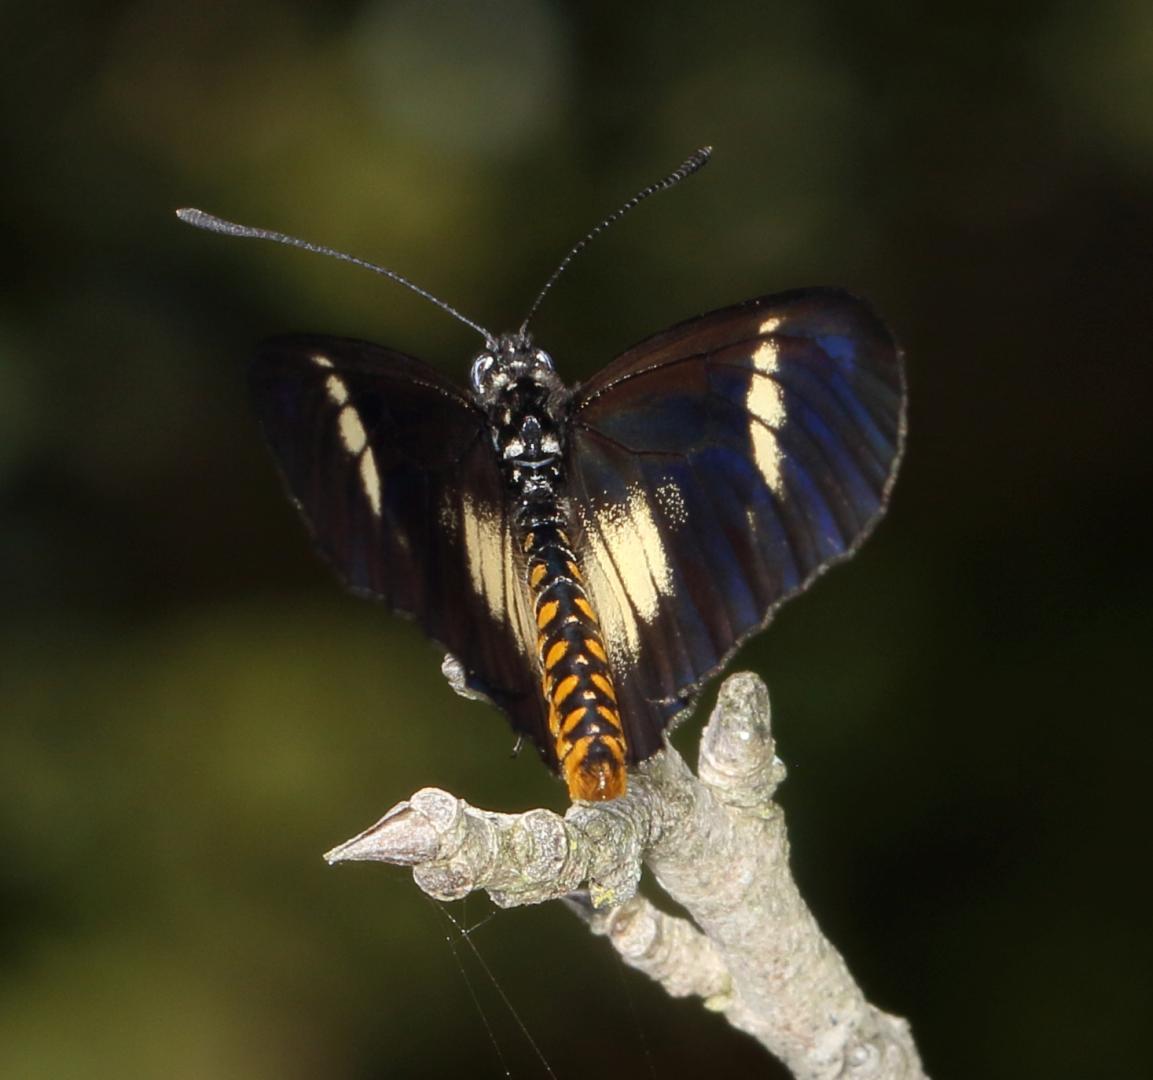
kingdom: Animalia
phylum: Arthropoda
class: Insecta
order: Lepidoptera
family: Nymphalidae
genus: Acraea
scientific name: Acraea esebria
